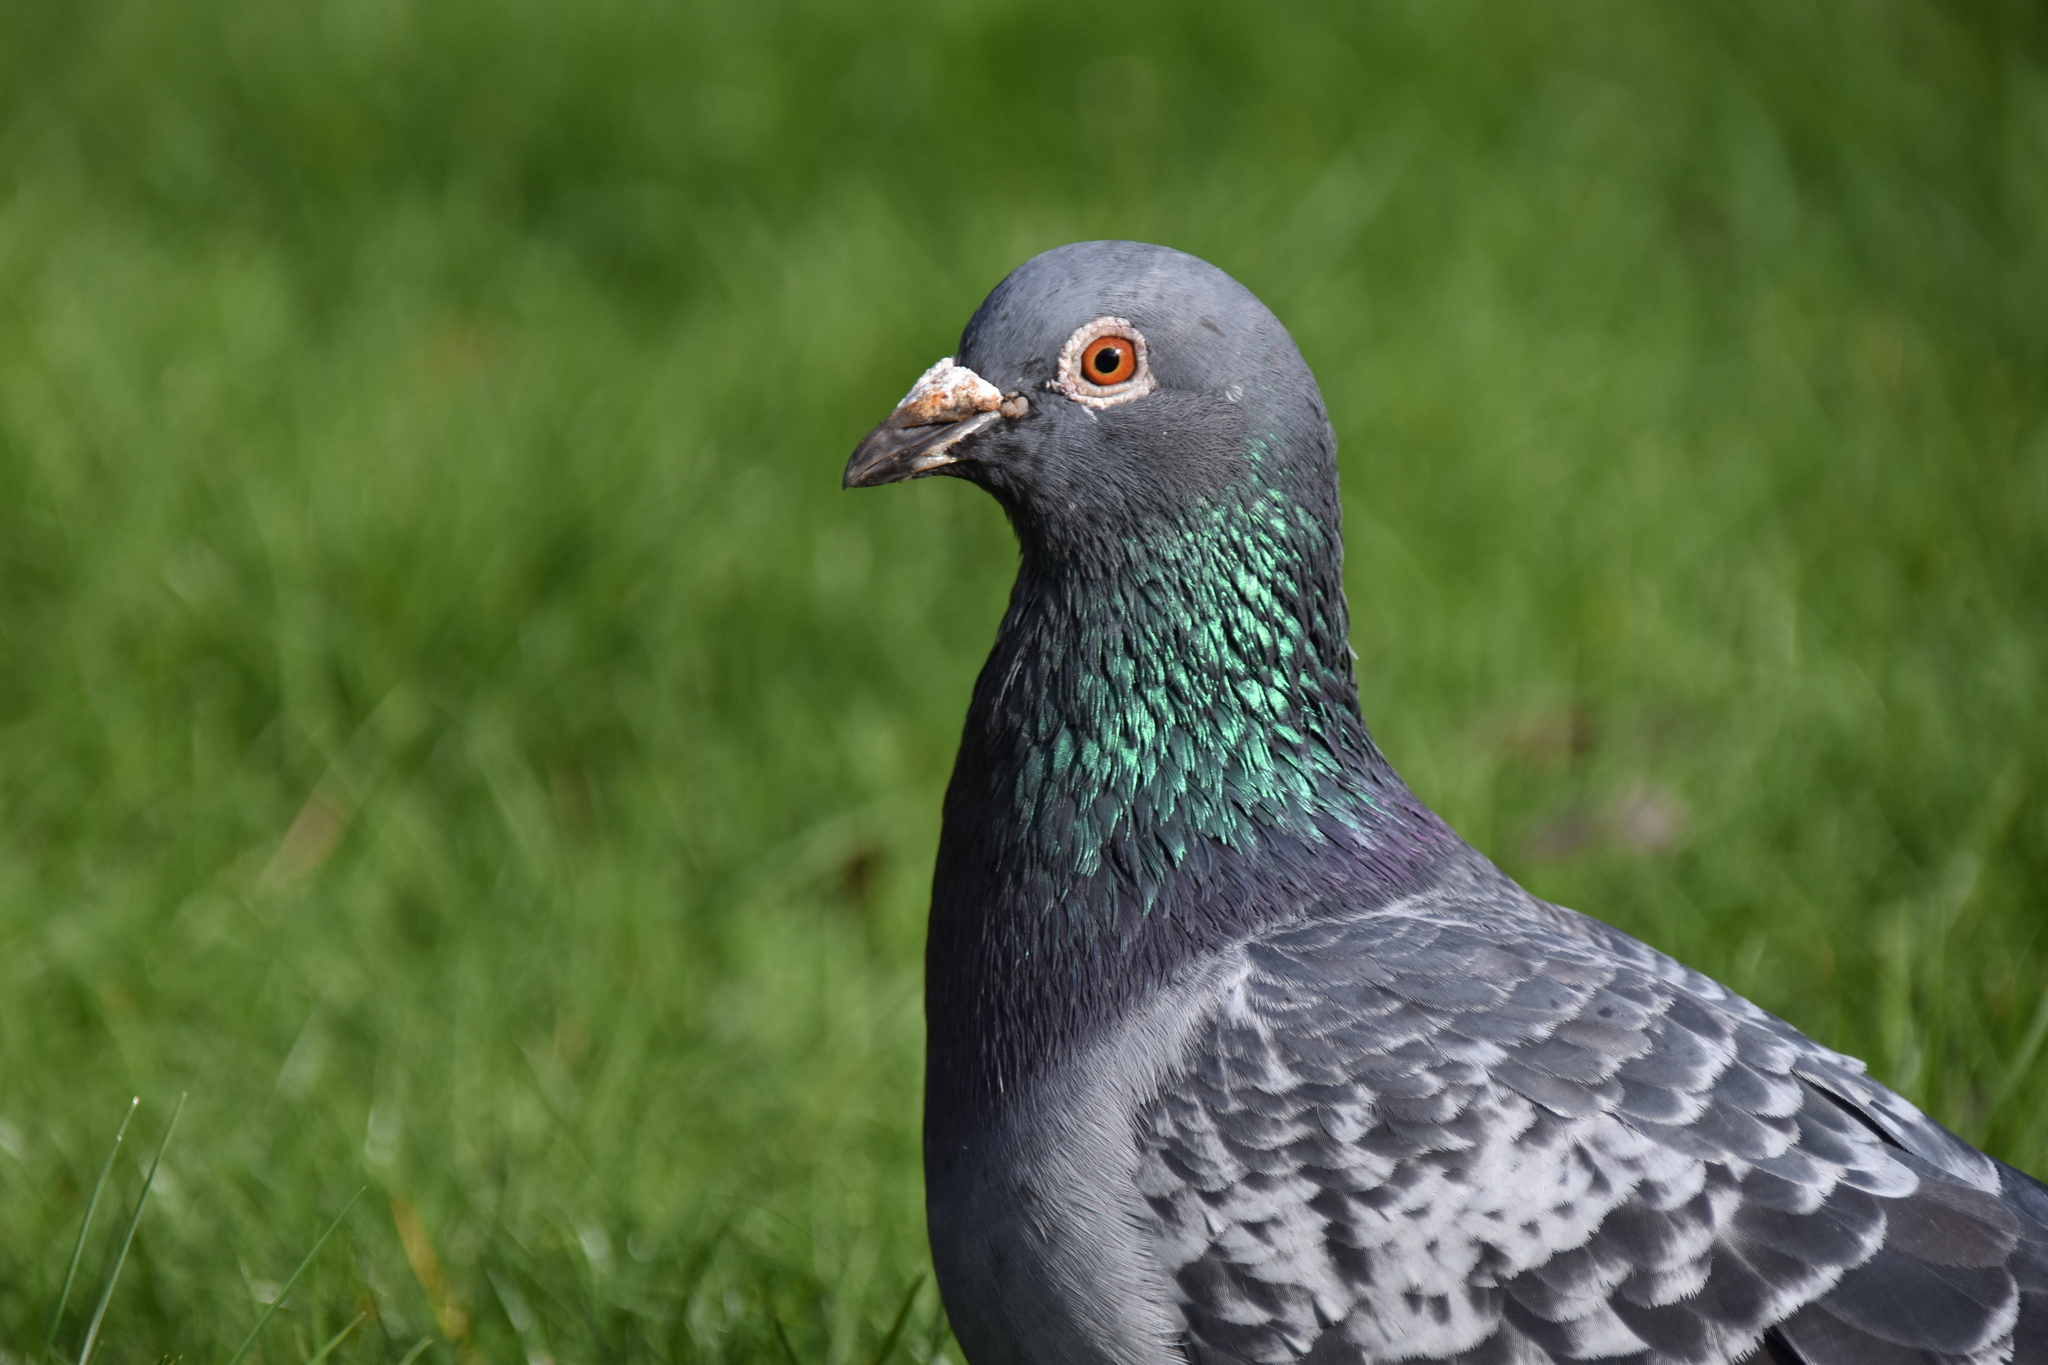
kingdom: Animalia
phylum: Chordata
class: Aves
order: Columbiformes
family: Columbidae
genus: Columba
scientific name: Columba livia
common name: Rock pigeon
